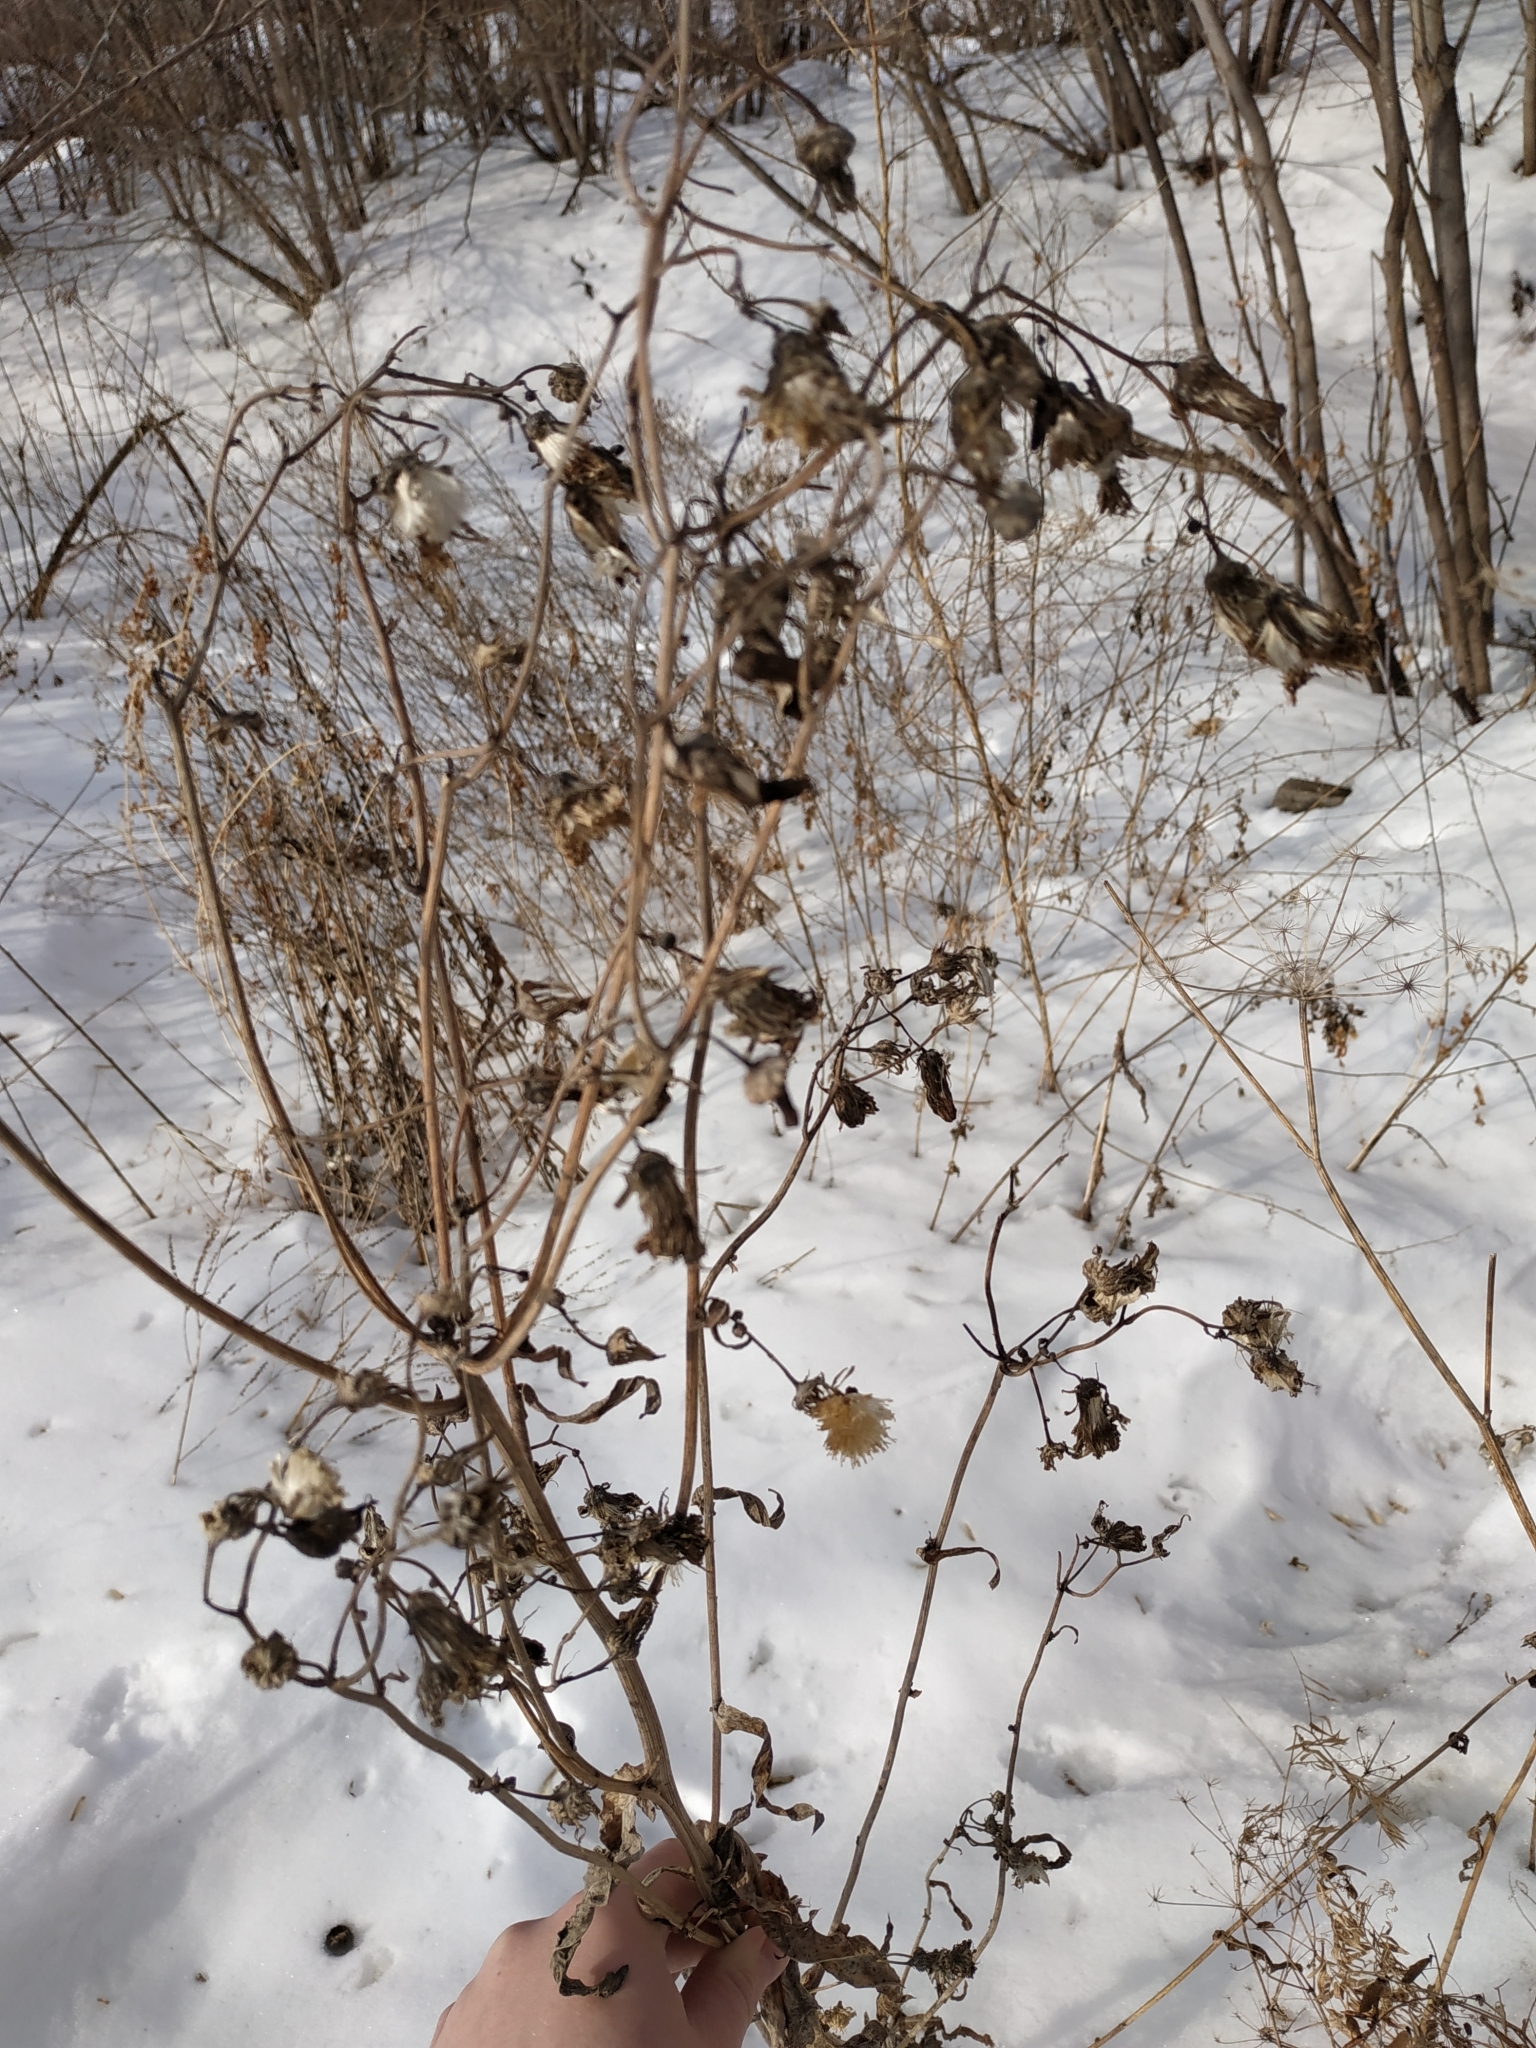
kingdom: Plantae
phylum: Tracheophyta
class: Magnoliopsida
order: Asterales
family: Asteraceae
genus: Cirsium
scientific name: Cirsium arvense
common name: Creeping thistle
